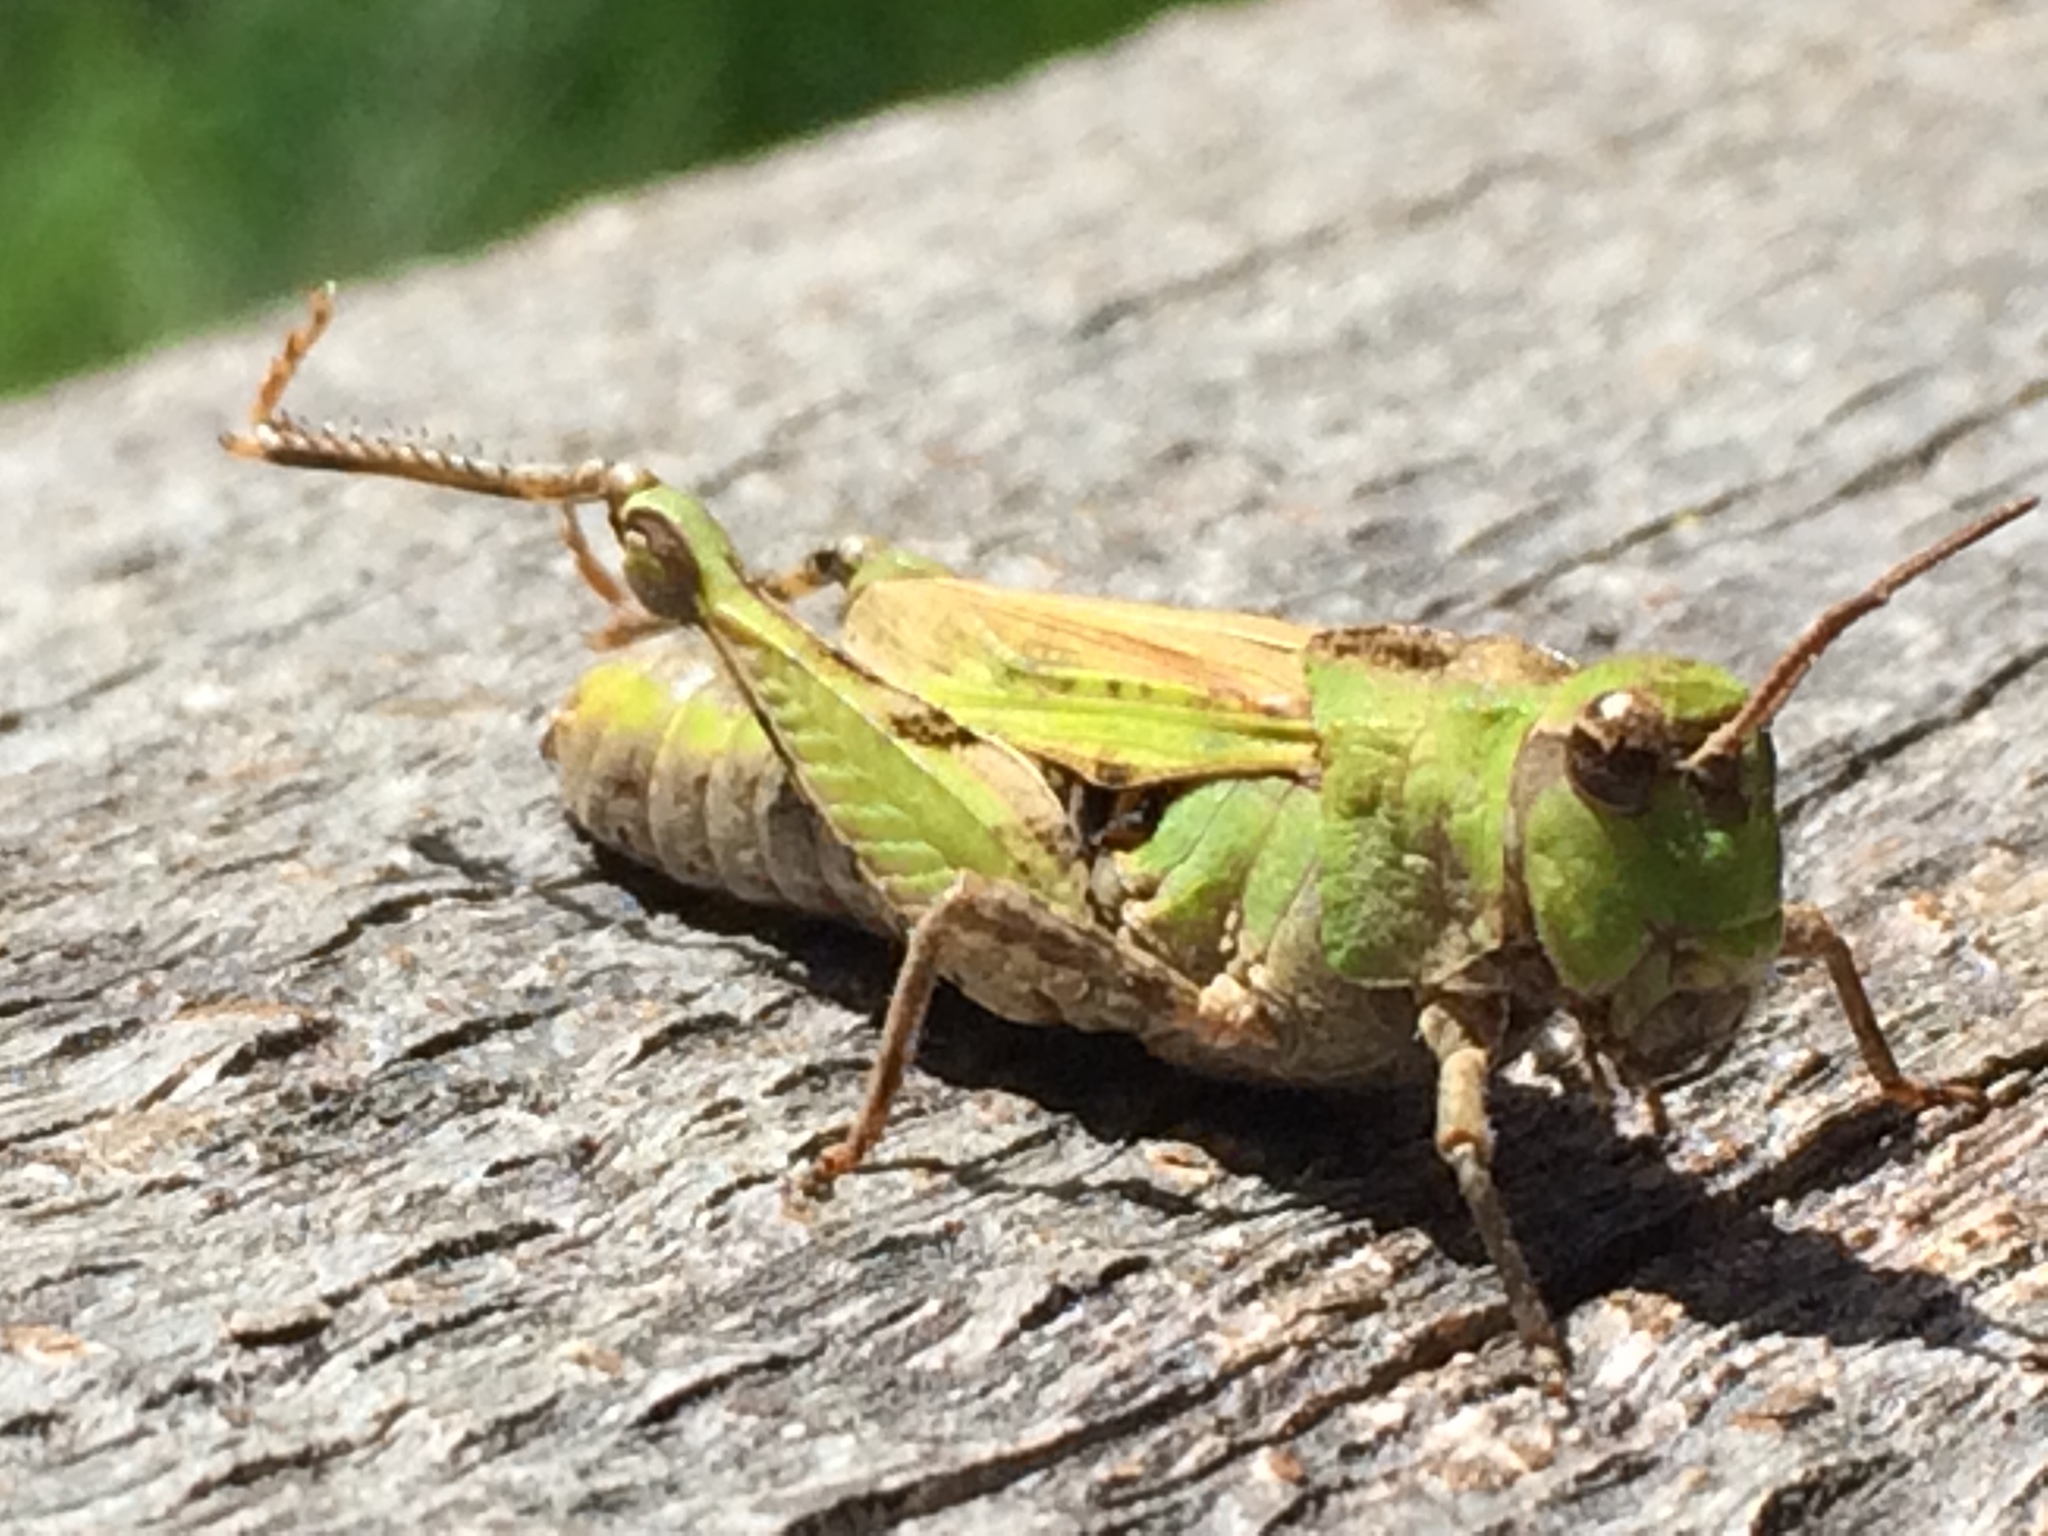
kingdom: Animalia
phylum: Arthropoda
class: Insecta
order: Orthoptera
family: Acrididae
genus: Chimarocephala
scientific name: Chimarocephala pacifica
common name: Painted meadow grasshopper
